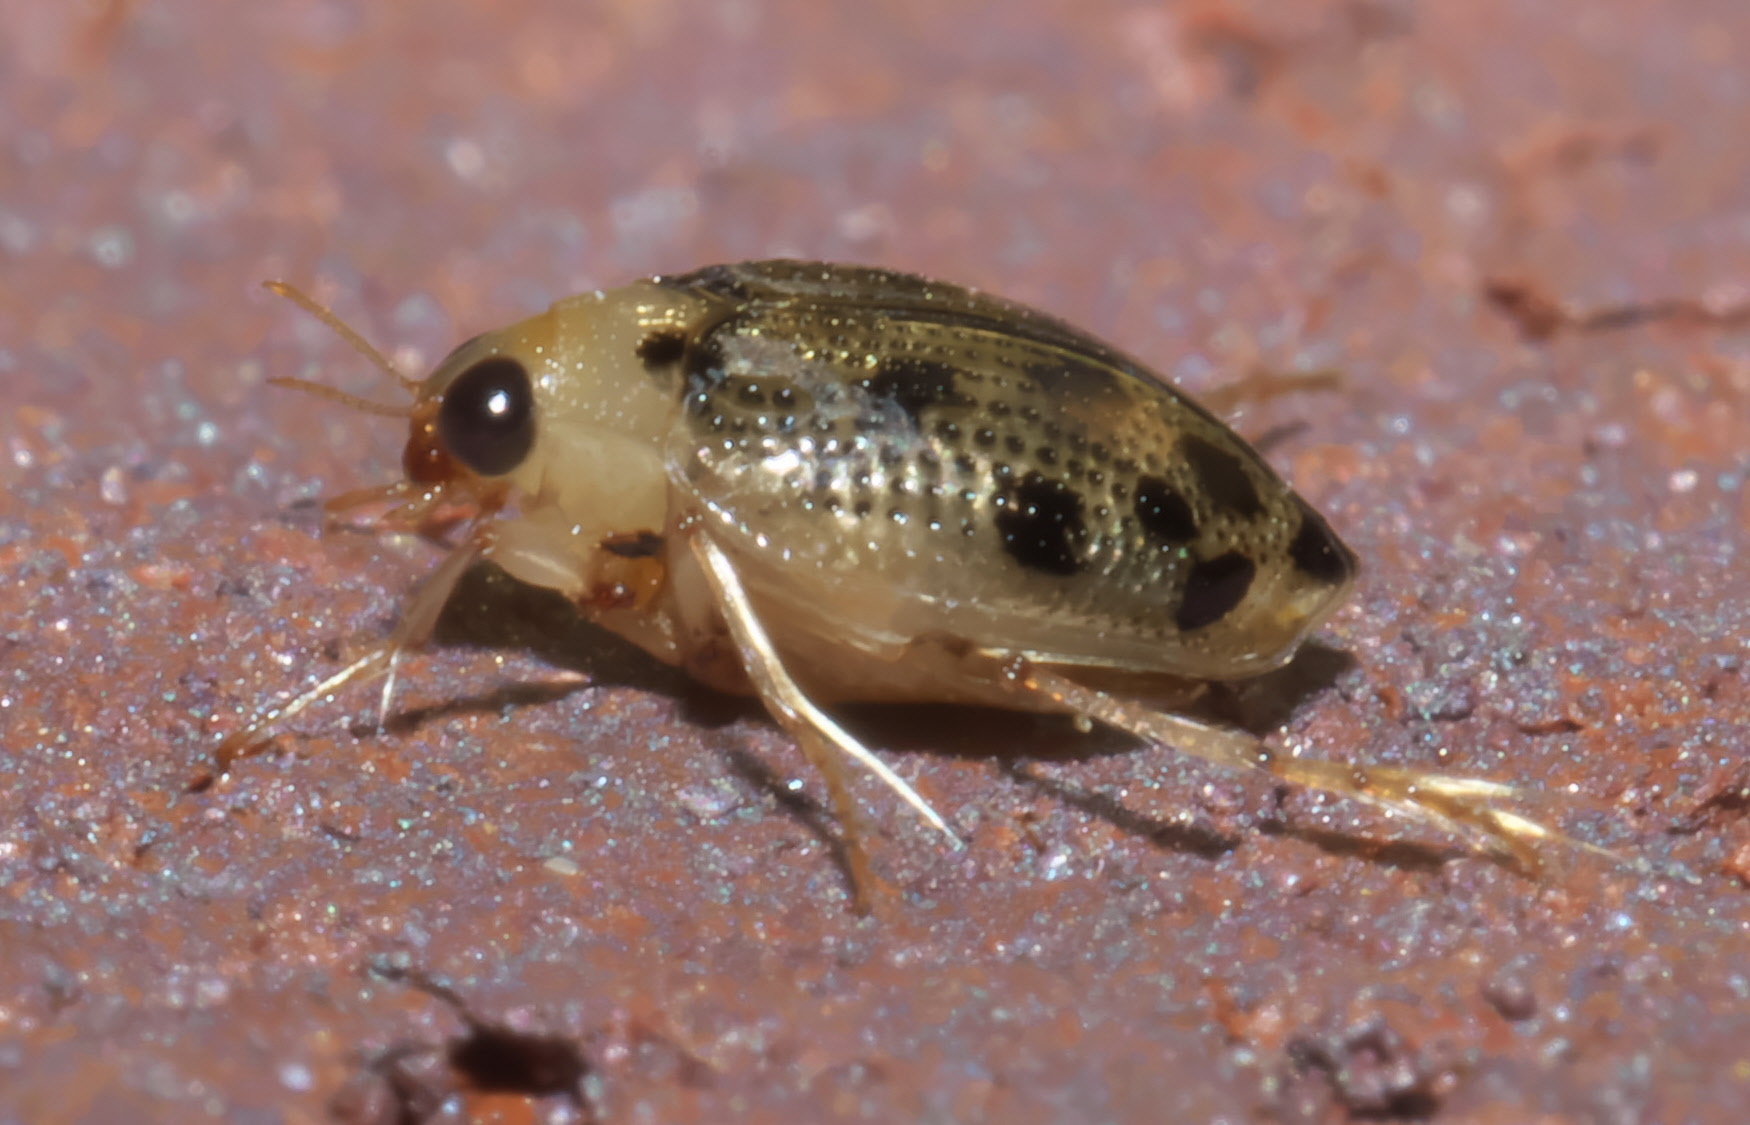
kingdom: Animalia
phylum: Arthropoda
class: Insecta
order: Coleoptera
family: Haliplidae
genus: Peltodytes
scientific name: Peltodytes litoralis
